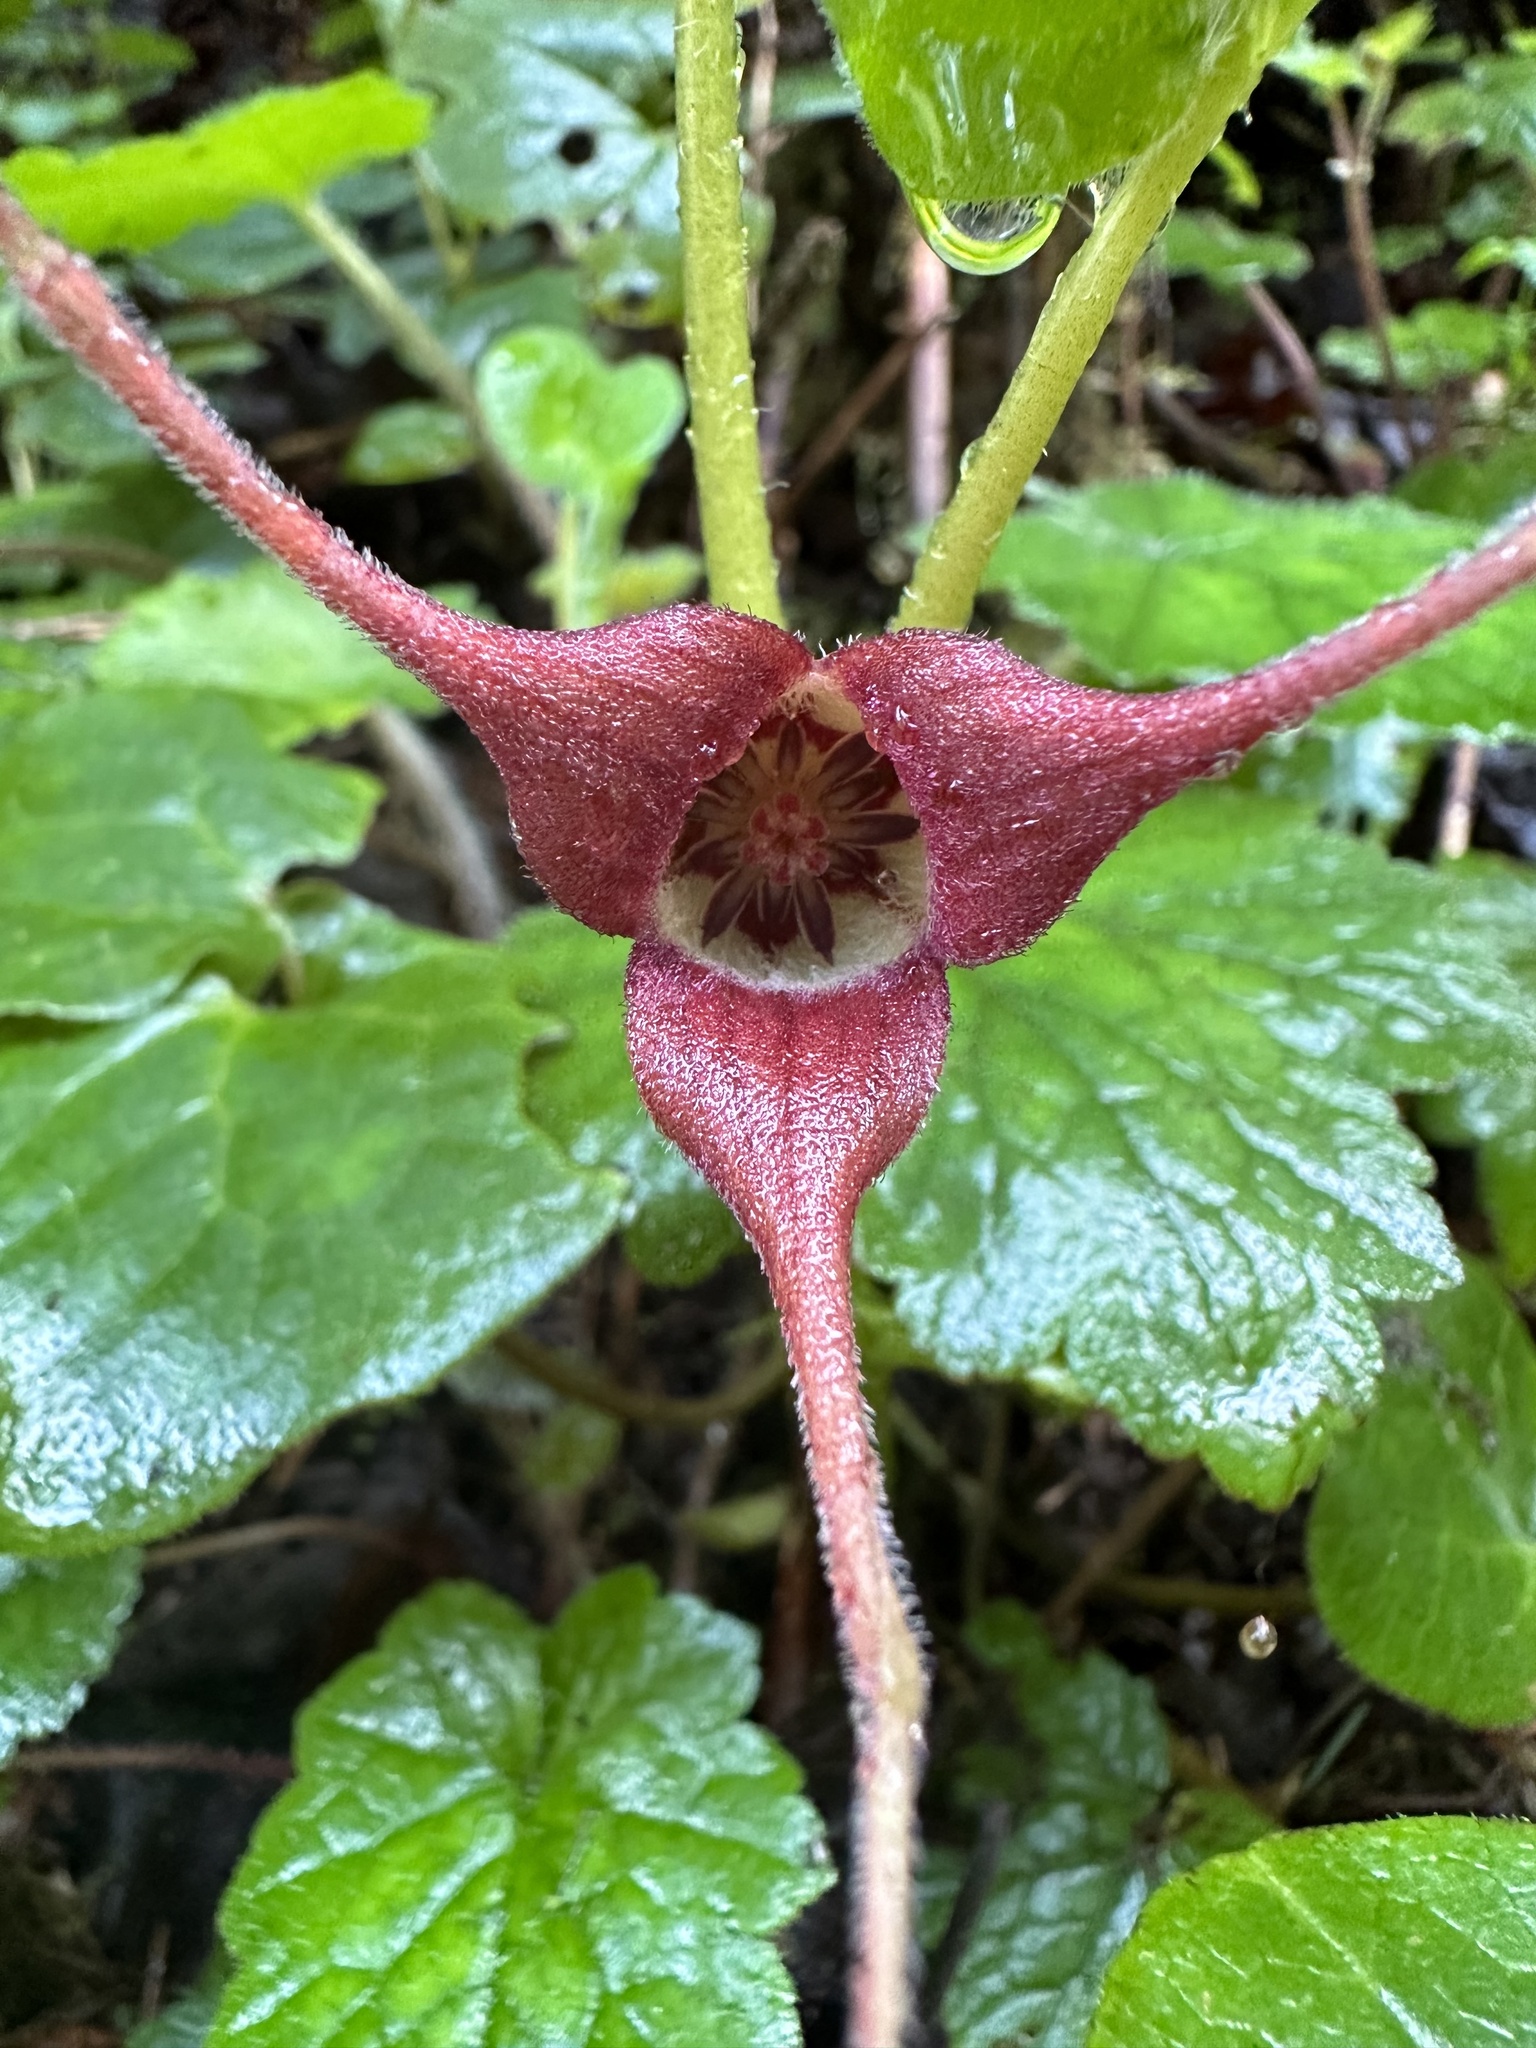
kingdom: Plantae
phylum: Tracheophyta
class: Magnoliopsida
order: Piperales
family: Aristolochiaceae
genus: Asarum
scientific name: Asarum caudatum
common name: Wild ginger
